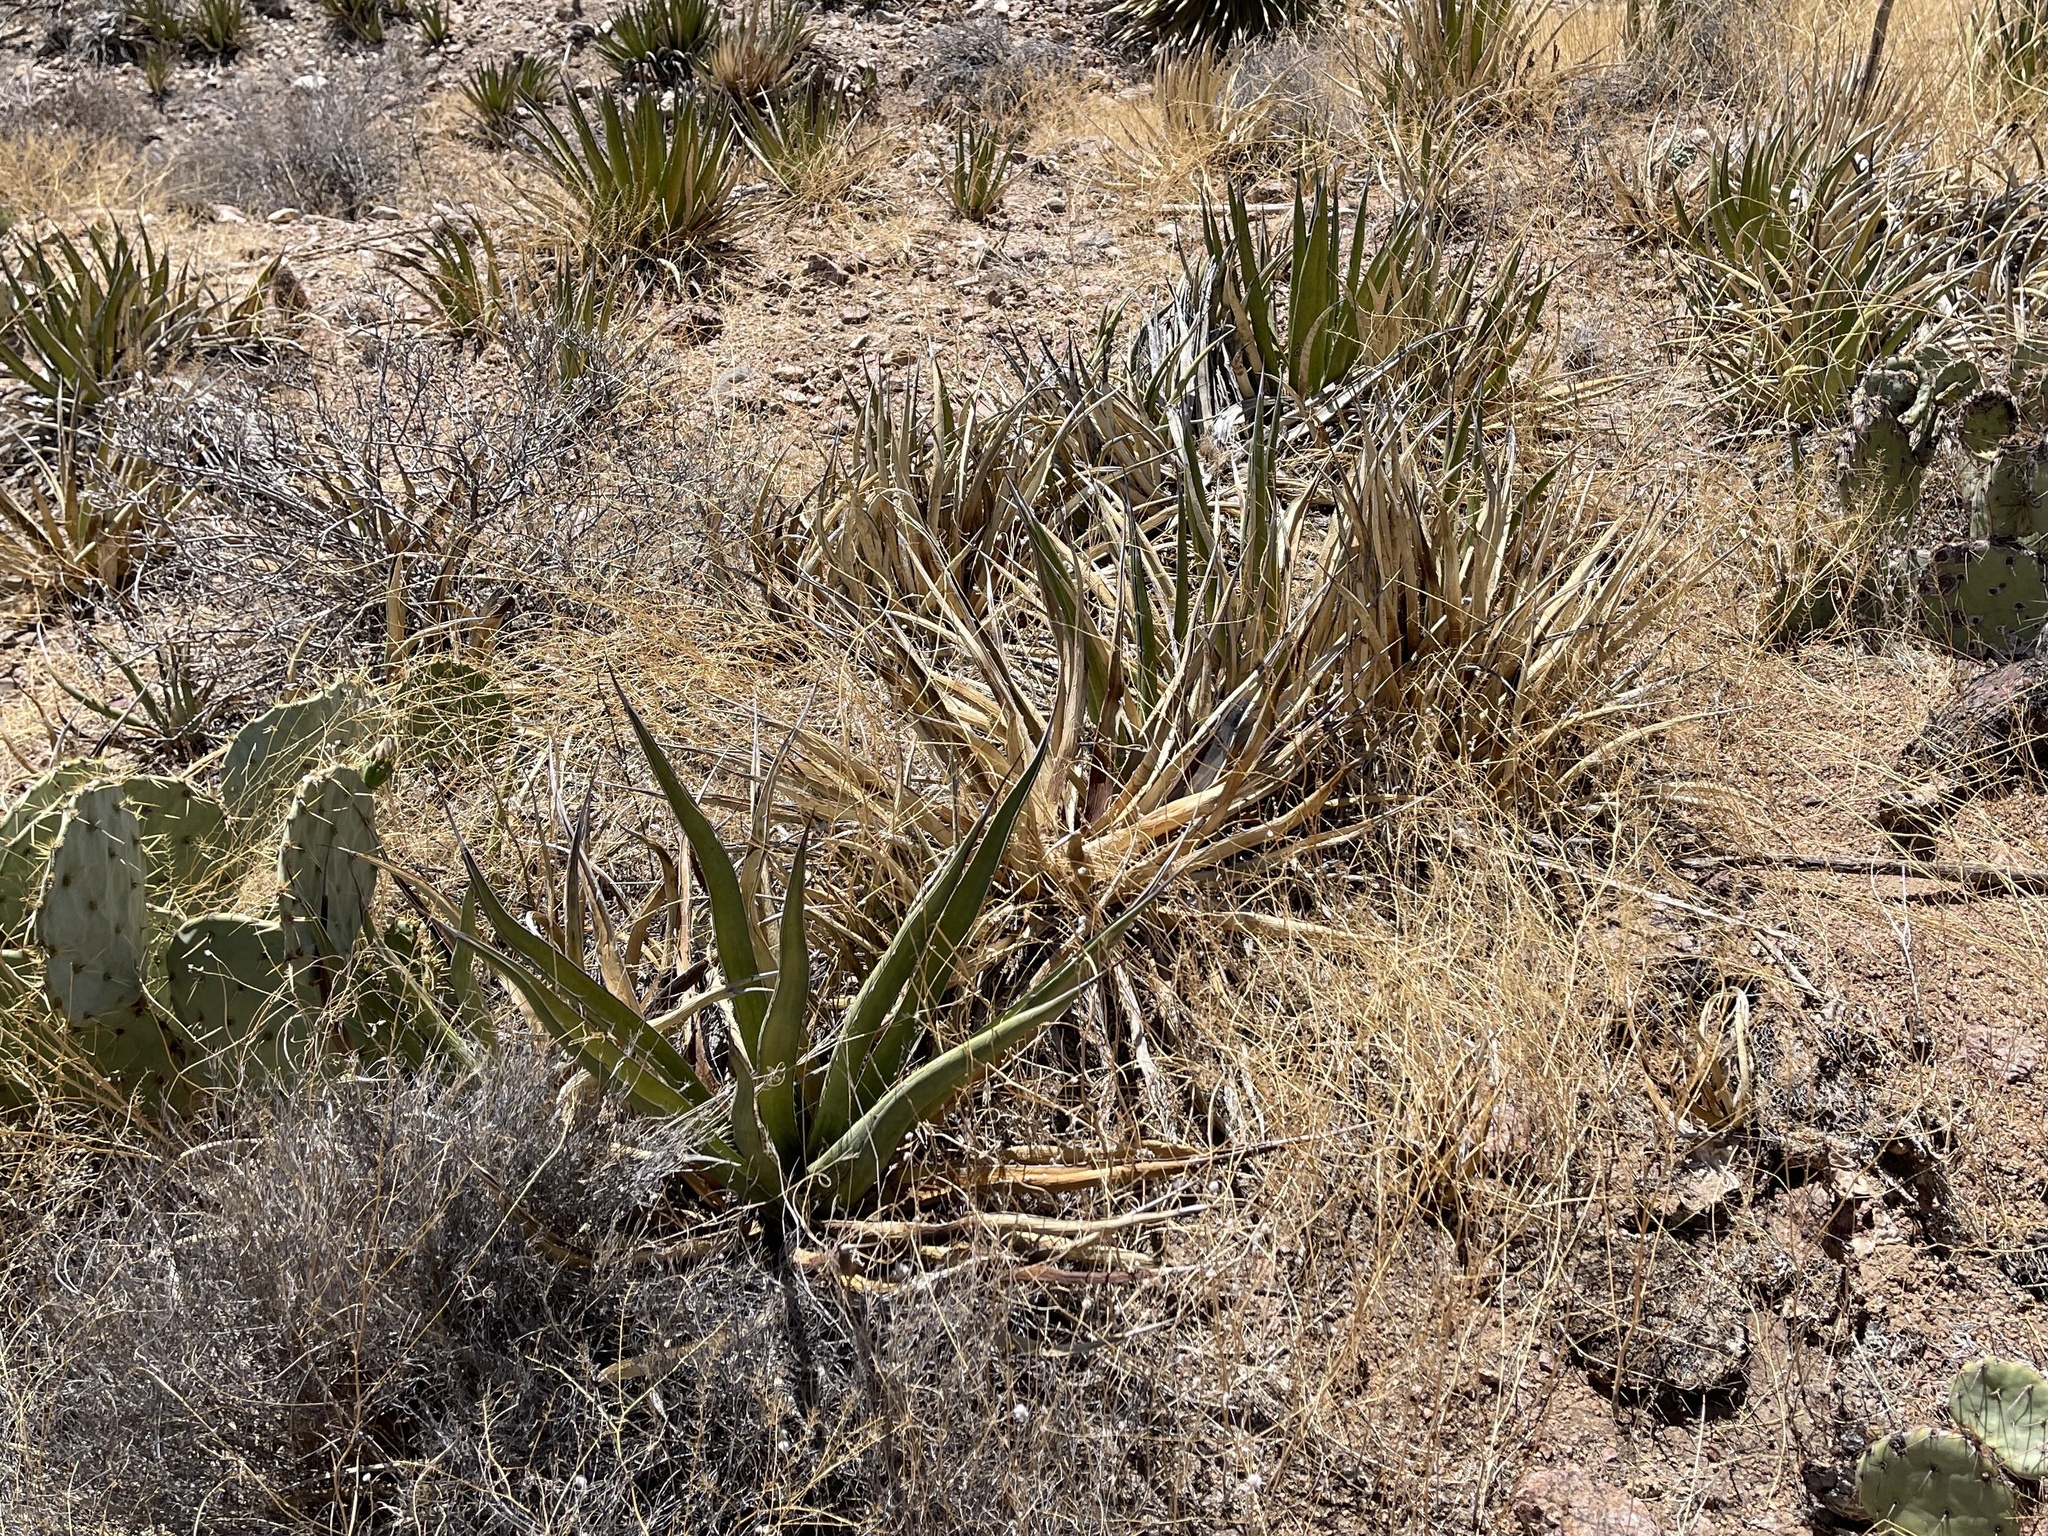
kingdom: Plantae
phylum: Tracheophyta
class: Liliopsida
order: Asparagales
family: Asparagaceae
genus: Agave
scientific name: Agave lechuguilla
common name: Lecheguilla agave
